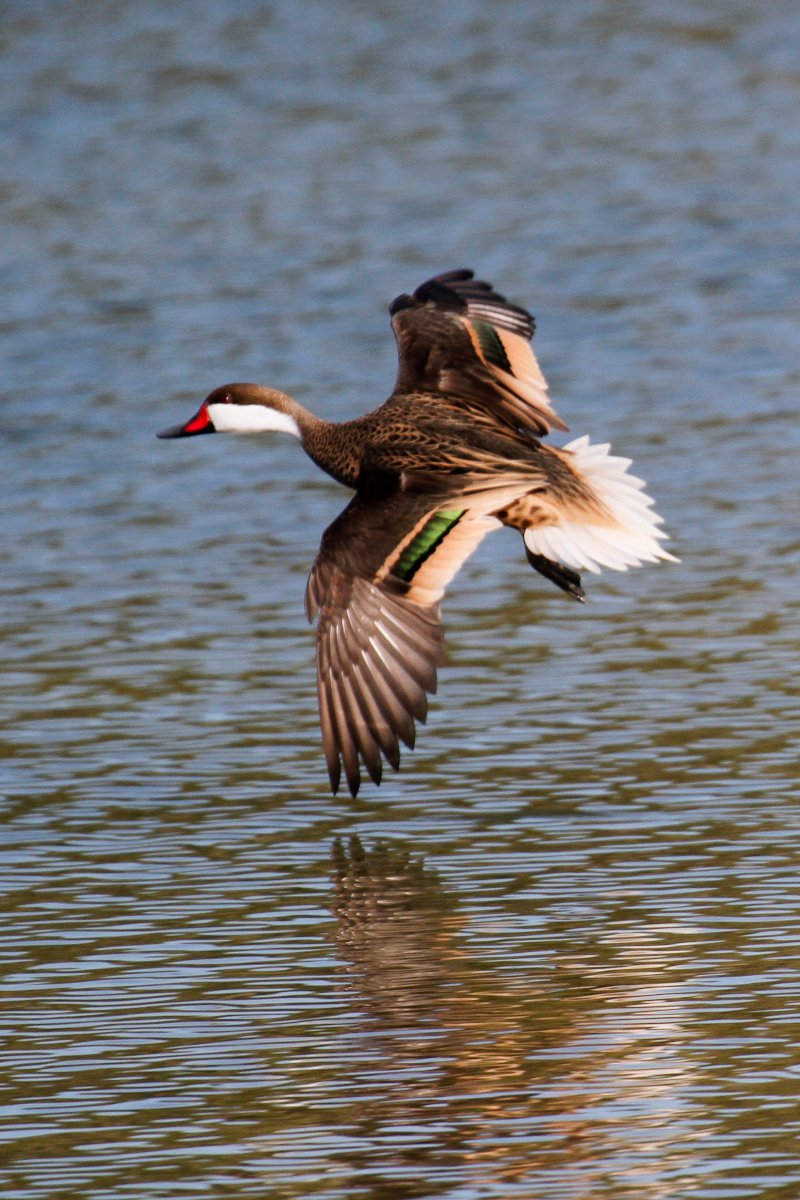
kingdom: Animalia
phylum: Chordata
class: Aves
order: Anseriformes
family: Anatidae
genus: Anas
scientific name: Anas bahamensis
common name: White-cheeked pintail
